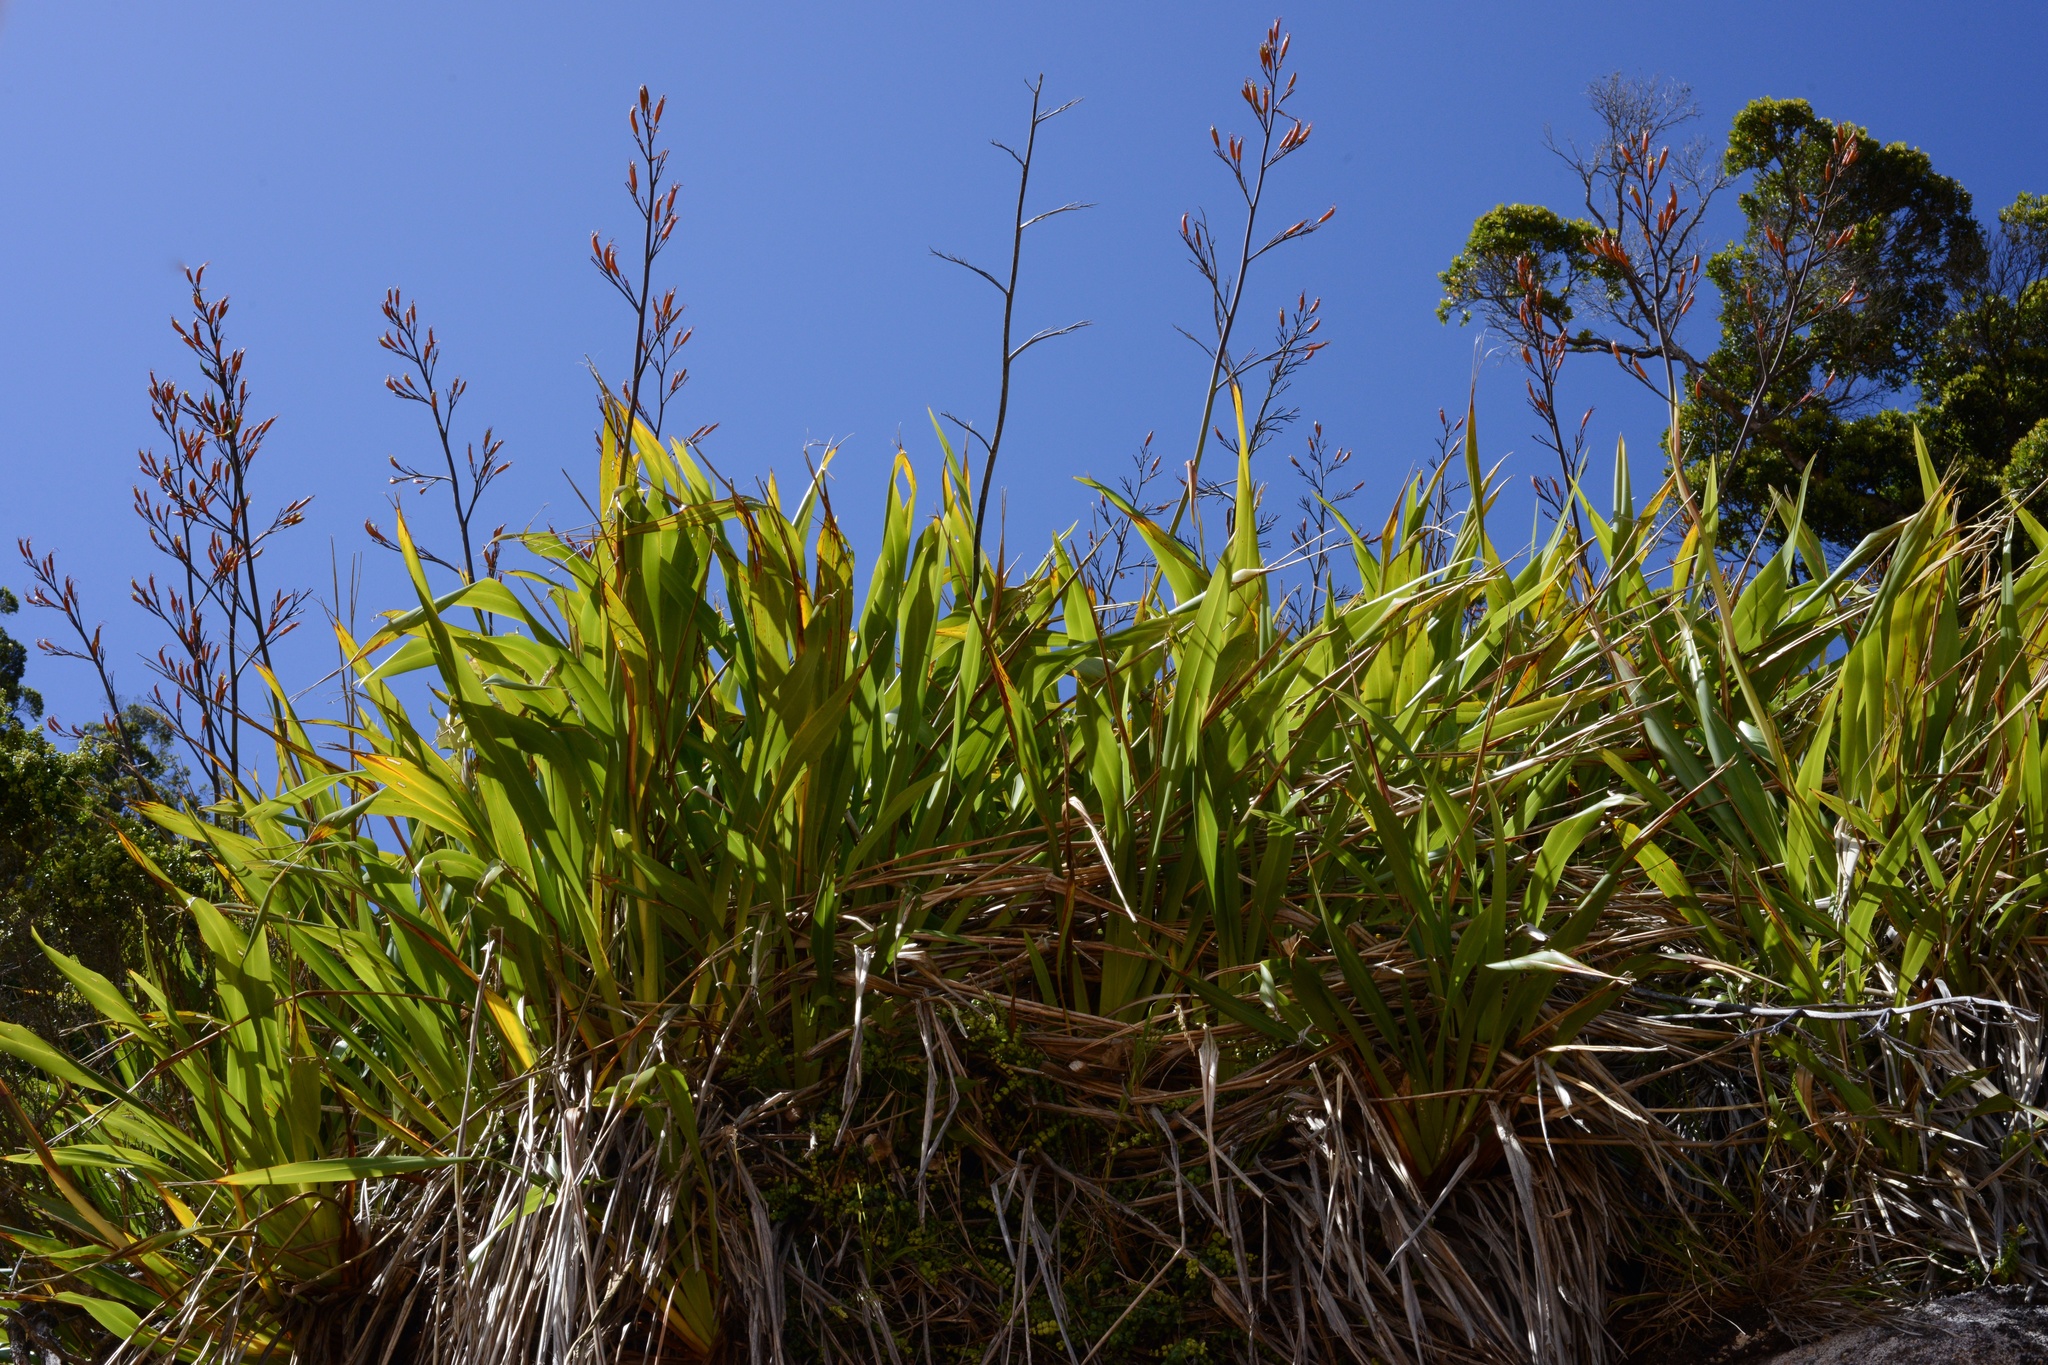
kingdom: Plantae
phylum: Tracheophyta
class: Liliopsida
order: Asparagales
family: Asphodelaceae
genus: Phormium
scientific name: Phormium colensoi
